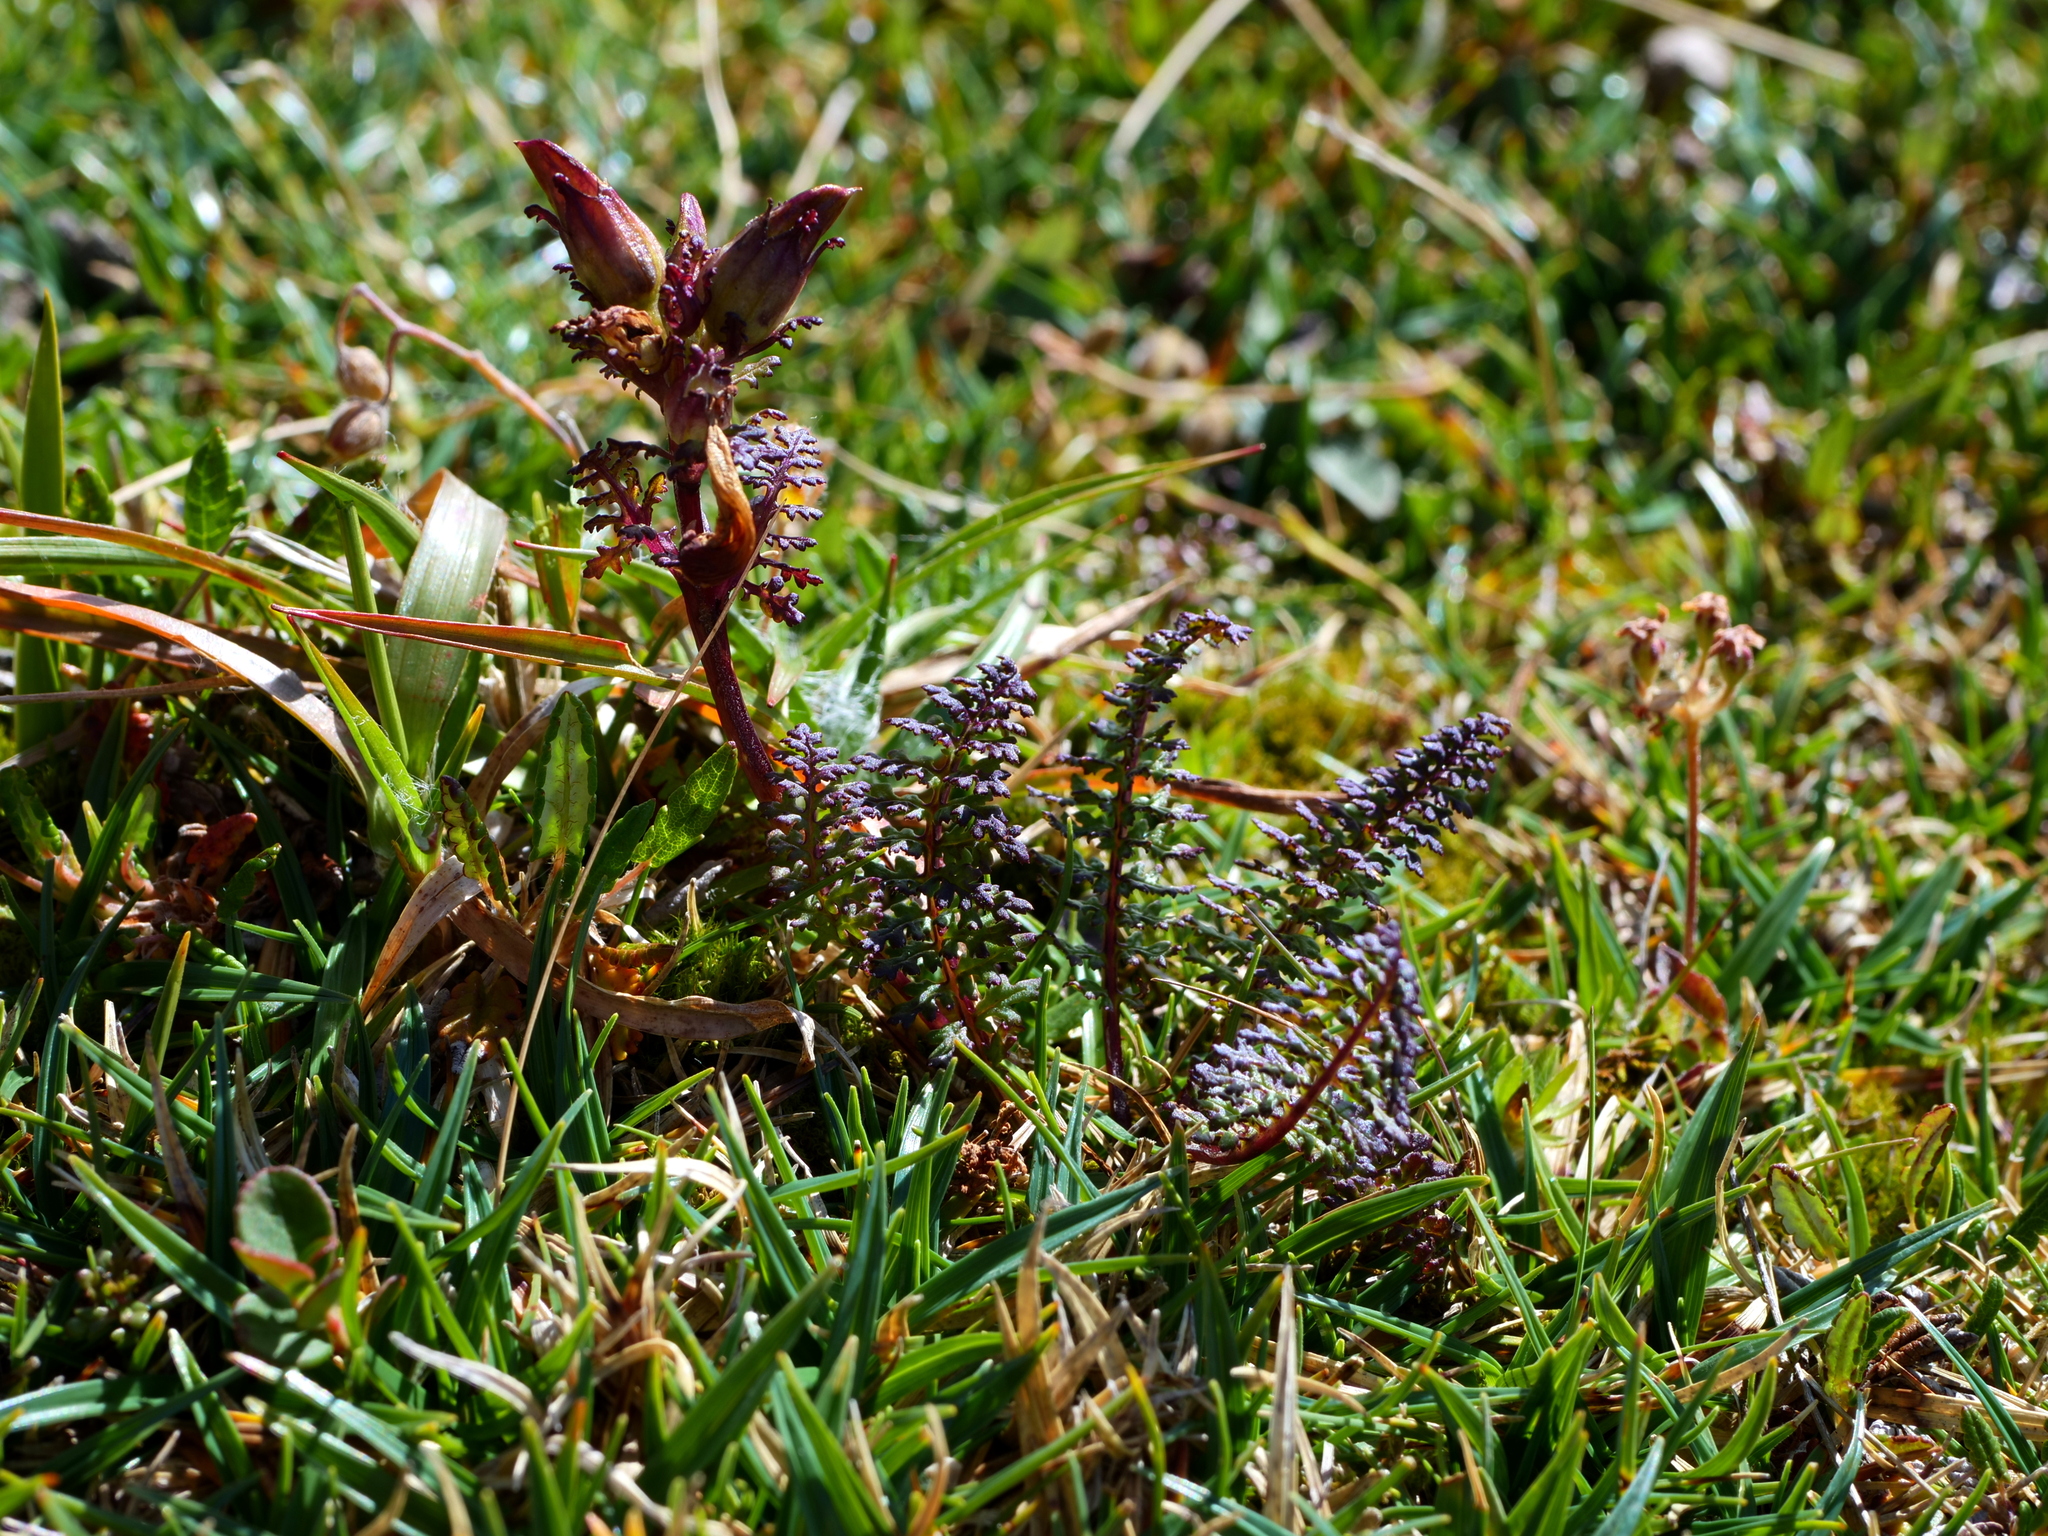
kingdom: Plantae
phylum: Tracheophyta
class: Magnoliopsida
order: Lamiales
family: Orobanchaceae
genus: Pedicularis
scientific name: Pedicularis rostratocapitata
